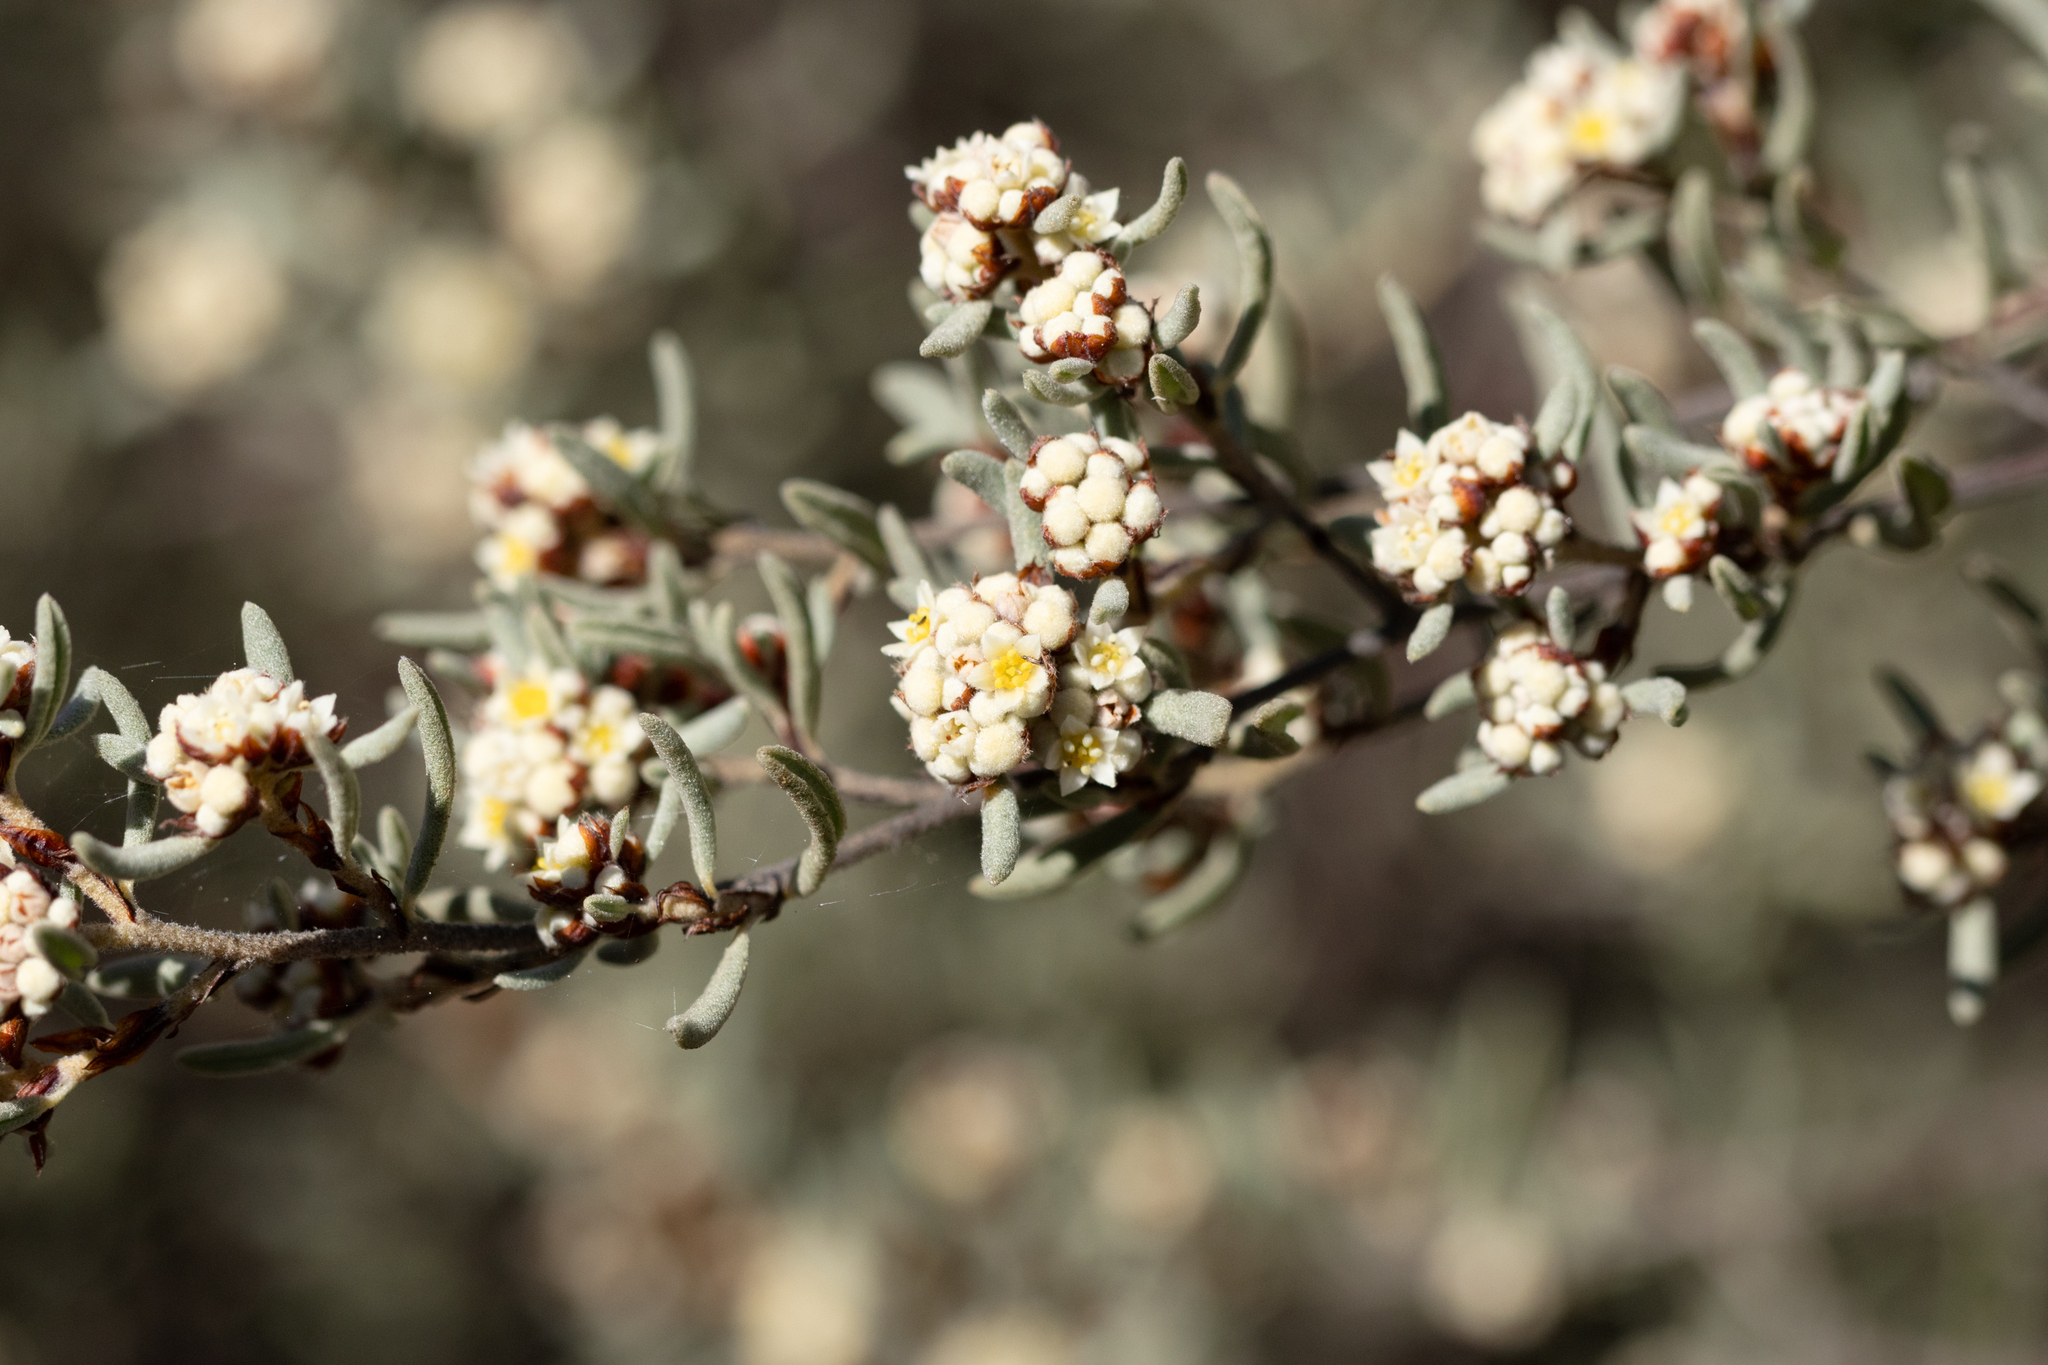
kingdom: Plantae
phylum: Tracheophyta
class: Magnoliopsida
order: Rosales
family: Rhamnaceae
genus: Spyridium
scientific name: Spyridium subochreatum
